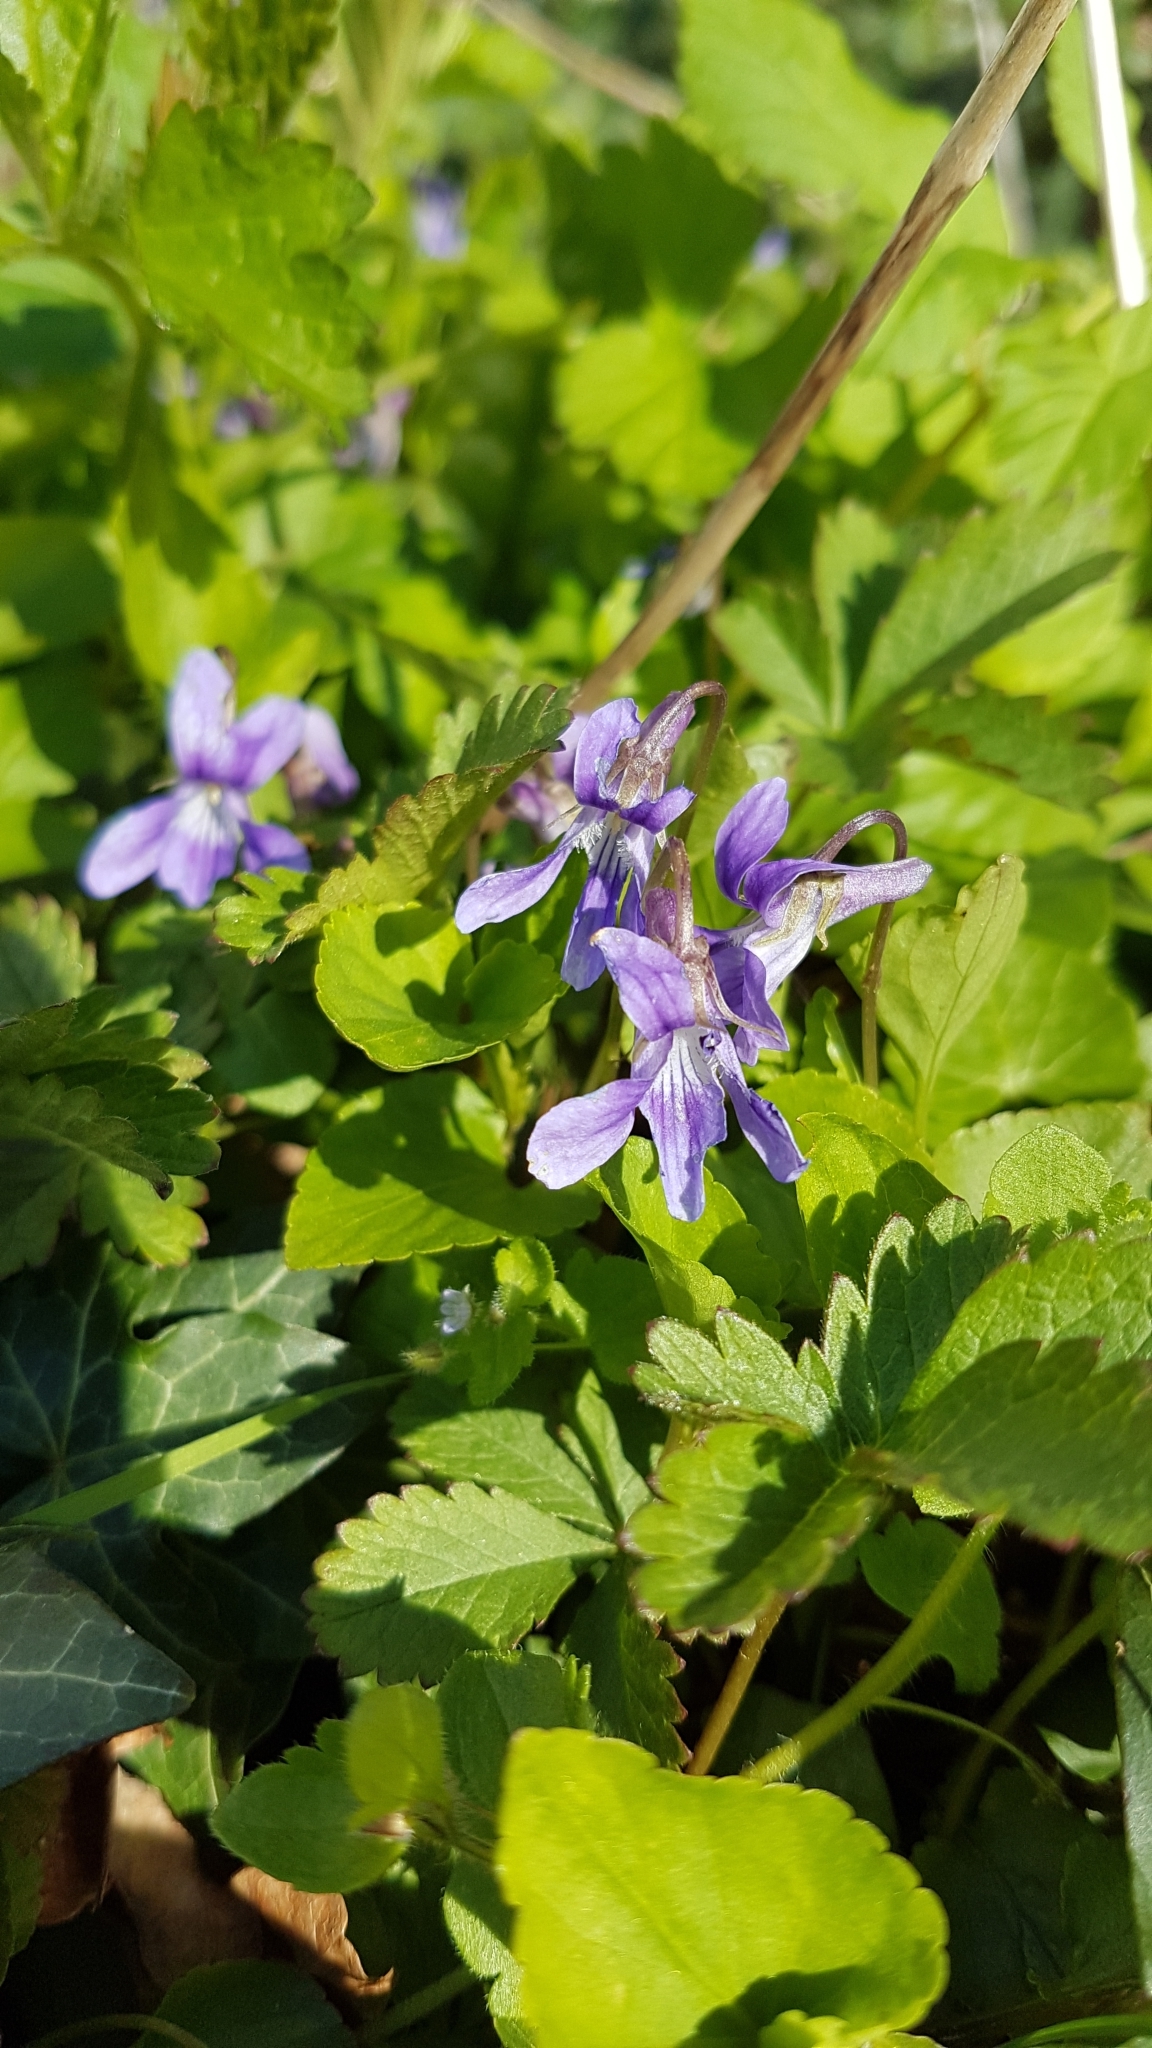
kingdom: Plantae
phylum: Tracheophyta
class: Magnoliopsida
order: Malpighiales
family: Violaceae
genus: Viola
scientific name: Viola reichenbachiana
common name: Early dog-violet
